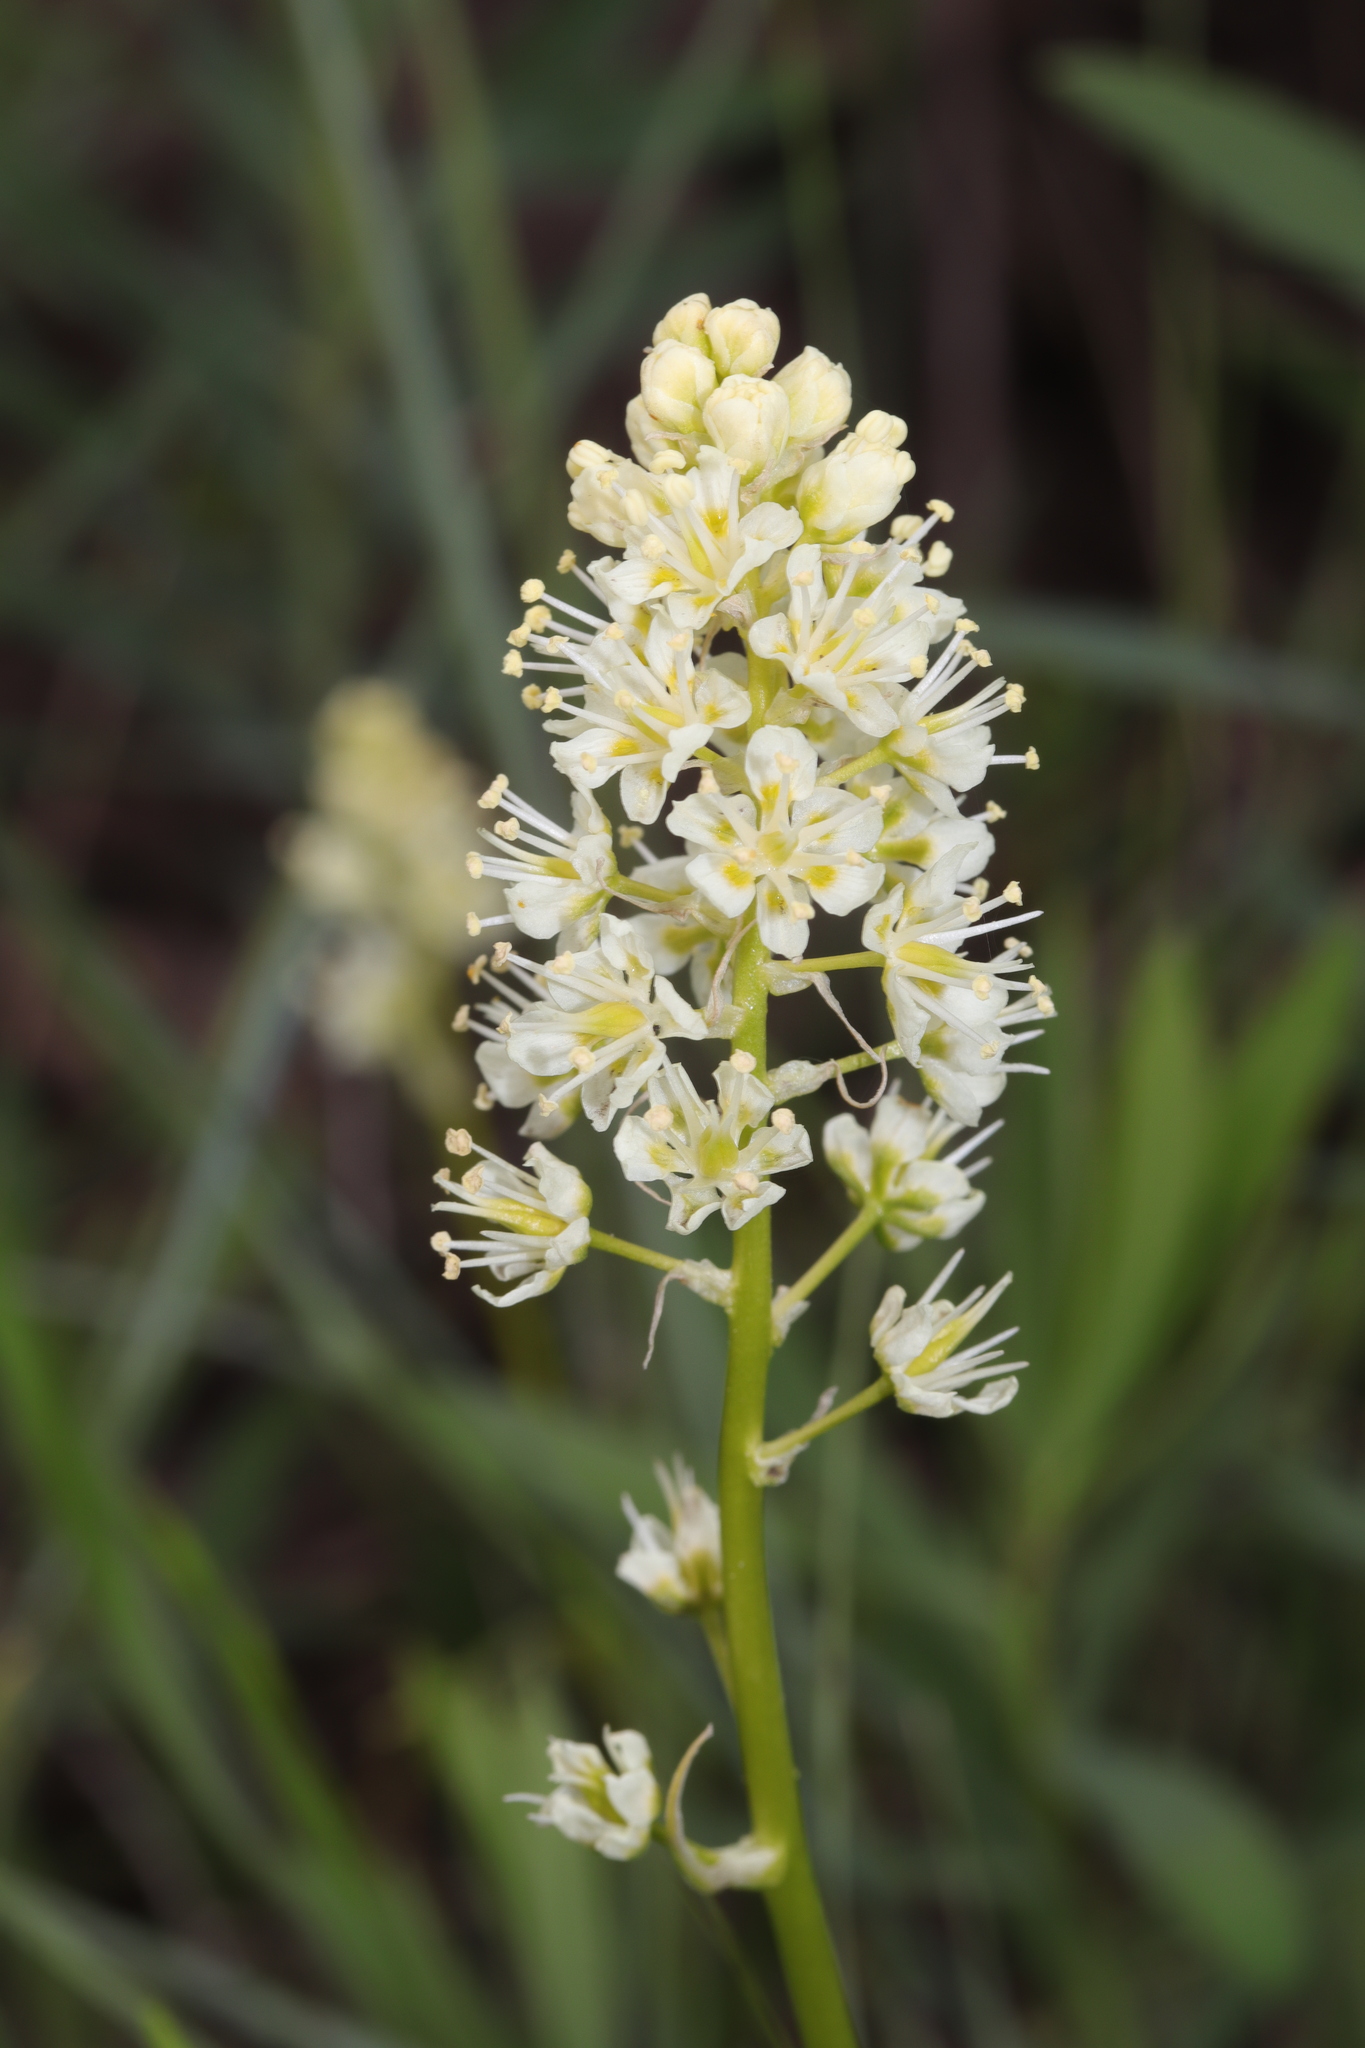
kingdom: Plantae
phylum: Tracheophyta
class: Liliopsida
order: Liliales
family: Melanthiaceae
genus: Toxicoscordion
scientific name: Toxicoscordion venenosum
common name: Meadow death camas
